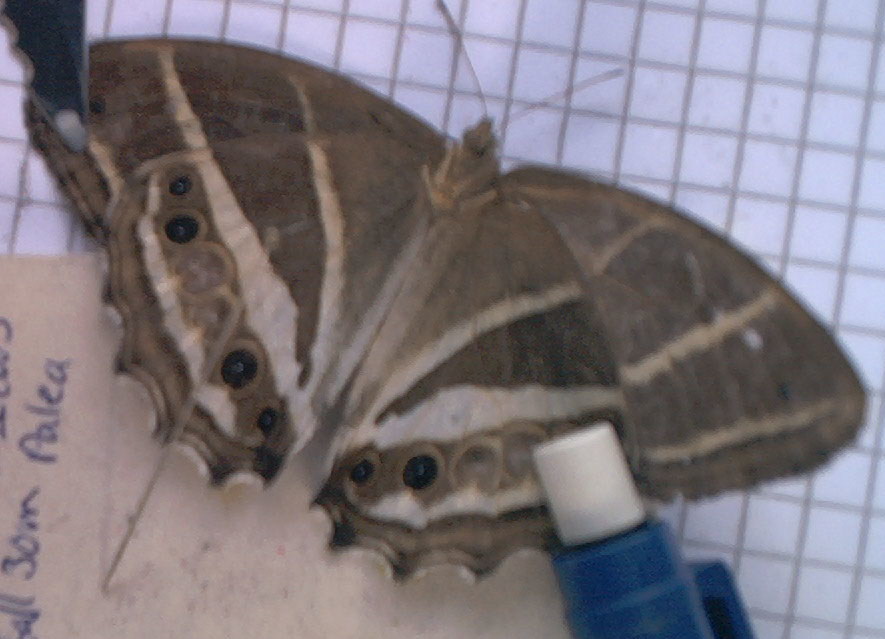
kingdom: Animalia
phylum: Arthropoda
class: Insecta
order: Lepidoptera
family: Nymphalidae
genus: Parataygetis
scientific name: Parataygetis albinotata
